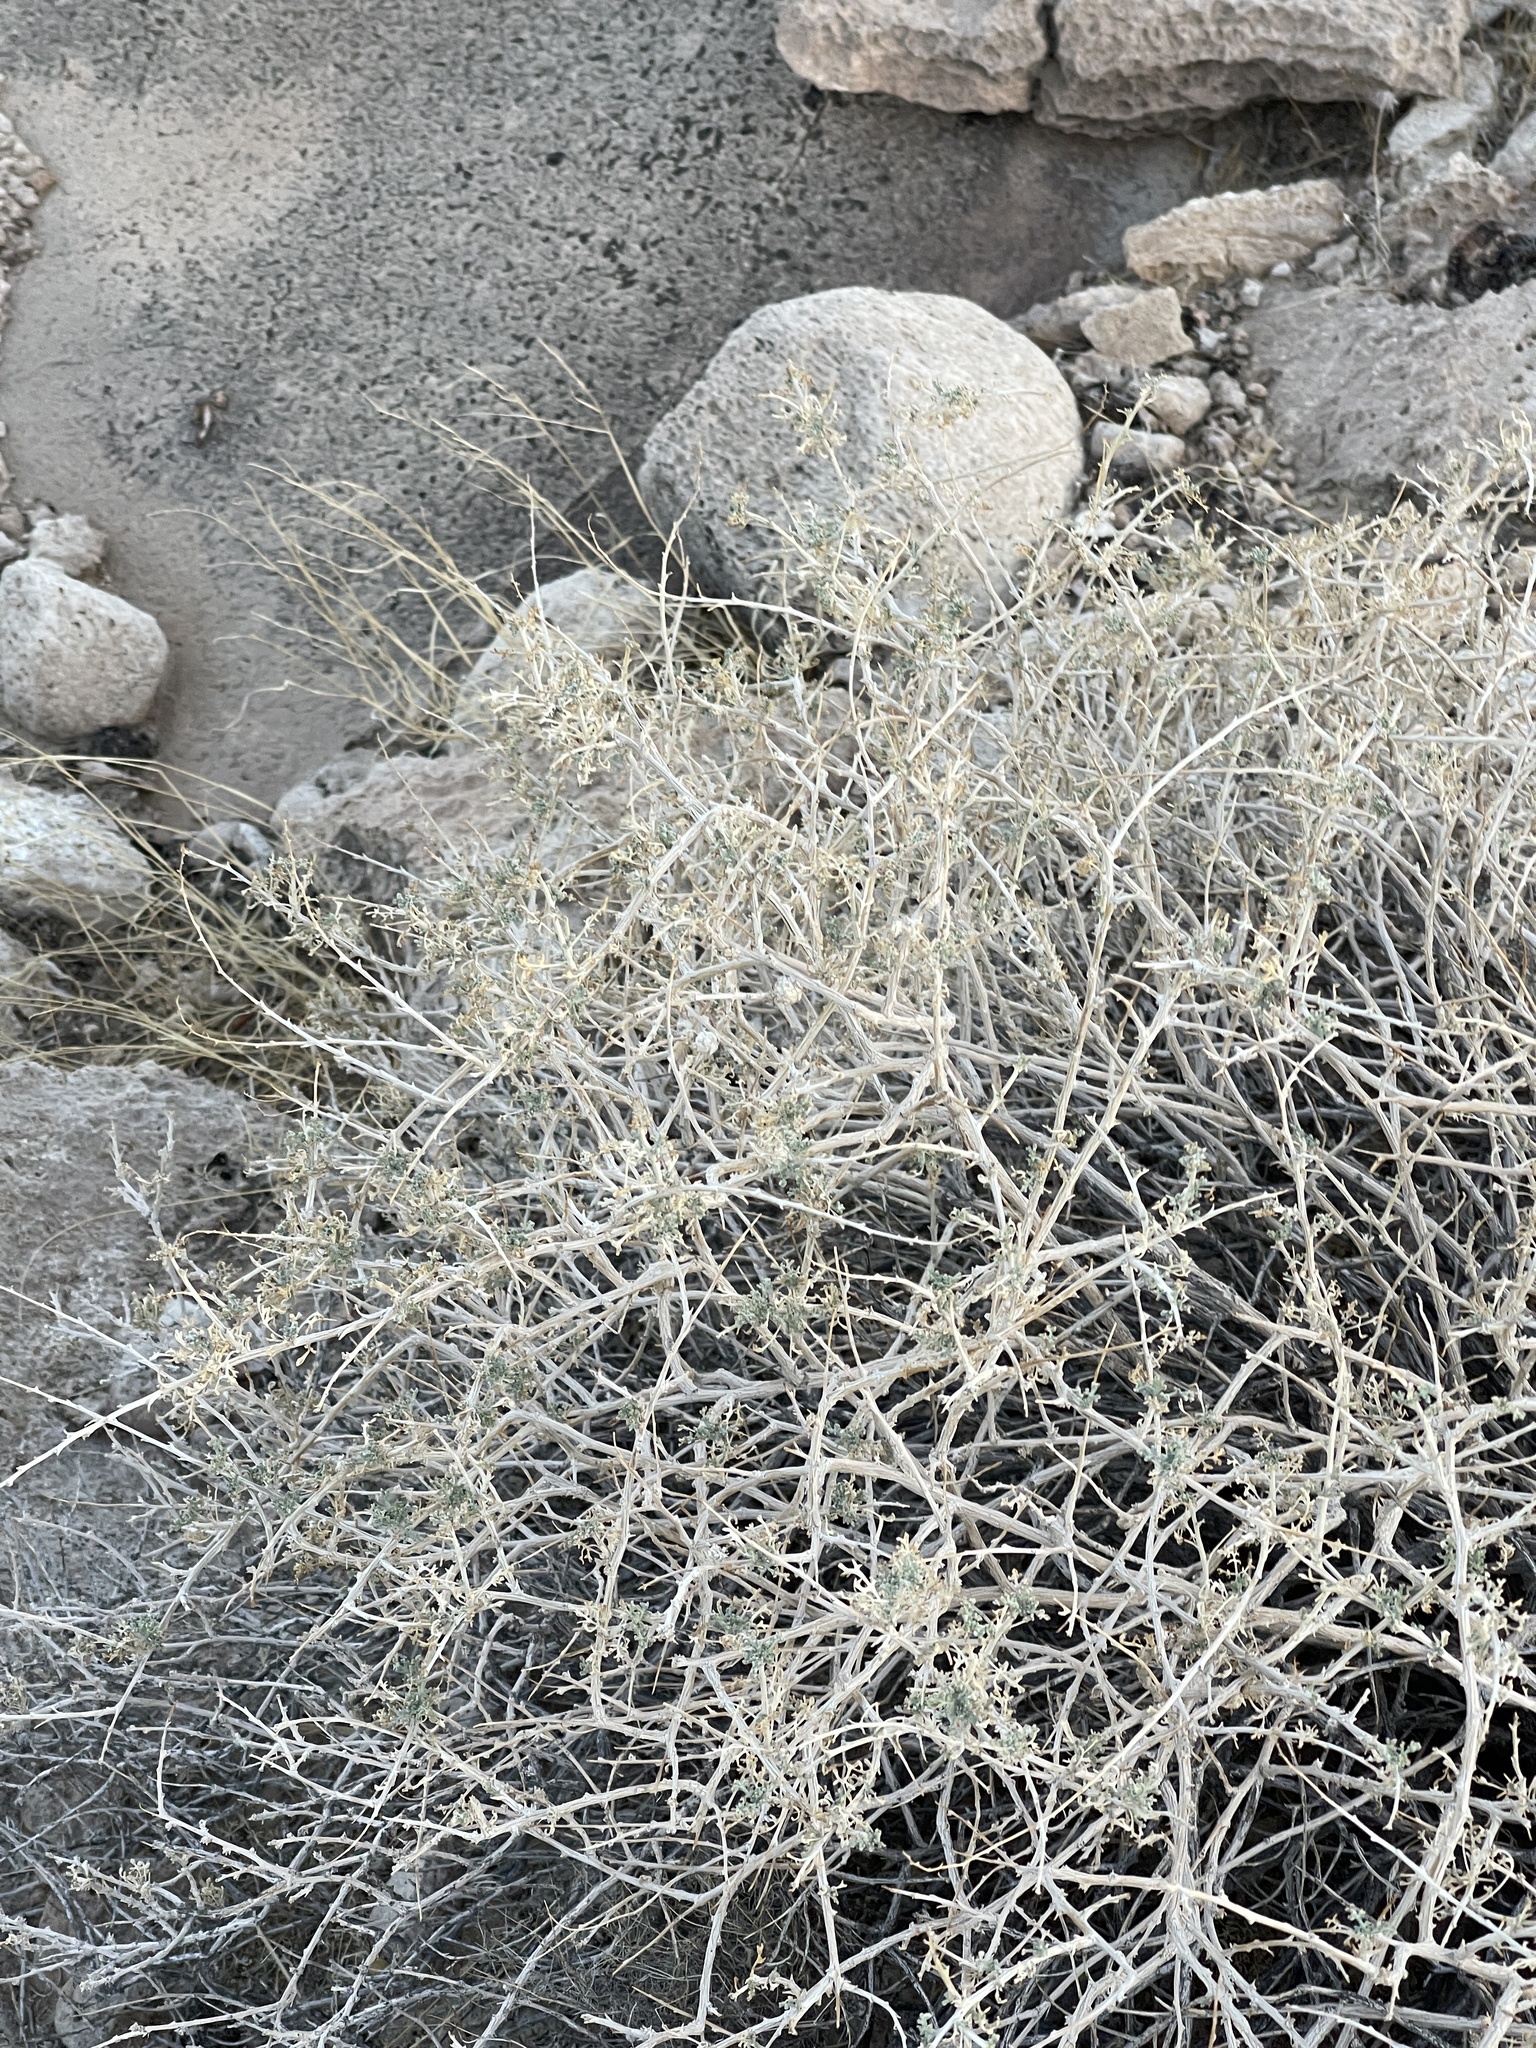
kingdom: Plantae
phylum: Tracheophyta
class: Magnoliopsida
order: Asterales
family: Asteraceae
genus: Ambrosia
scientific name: Ambrosia dumosa
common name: Bur-sage
